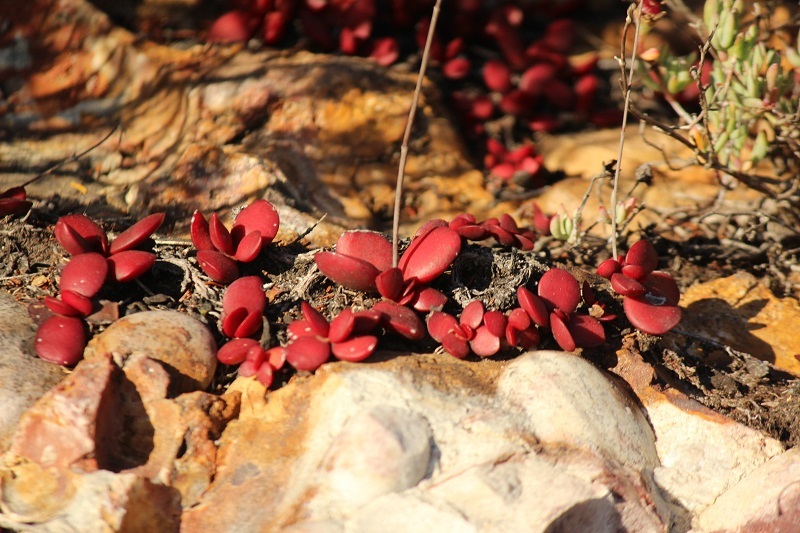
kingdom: Plantae
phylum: Tracheophyta
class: Magnoliopsida
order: Saxifragales
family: Crassulaceae
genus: Crassula
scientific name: Crassula atropurpurea
